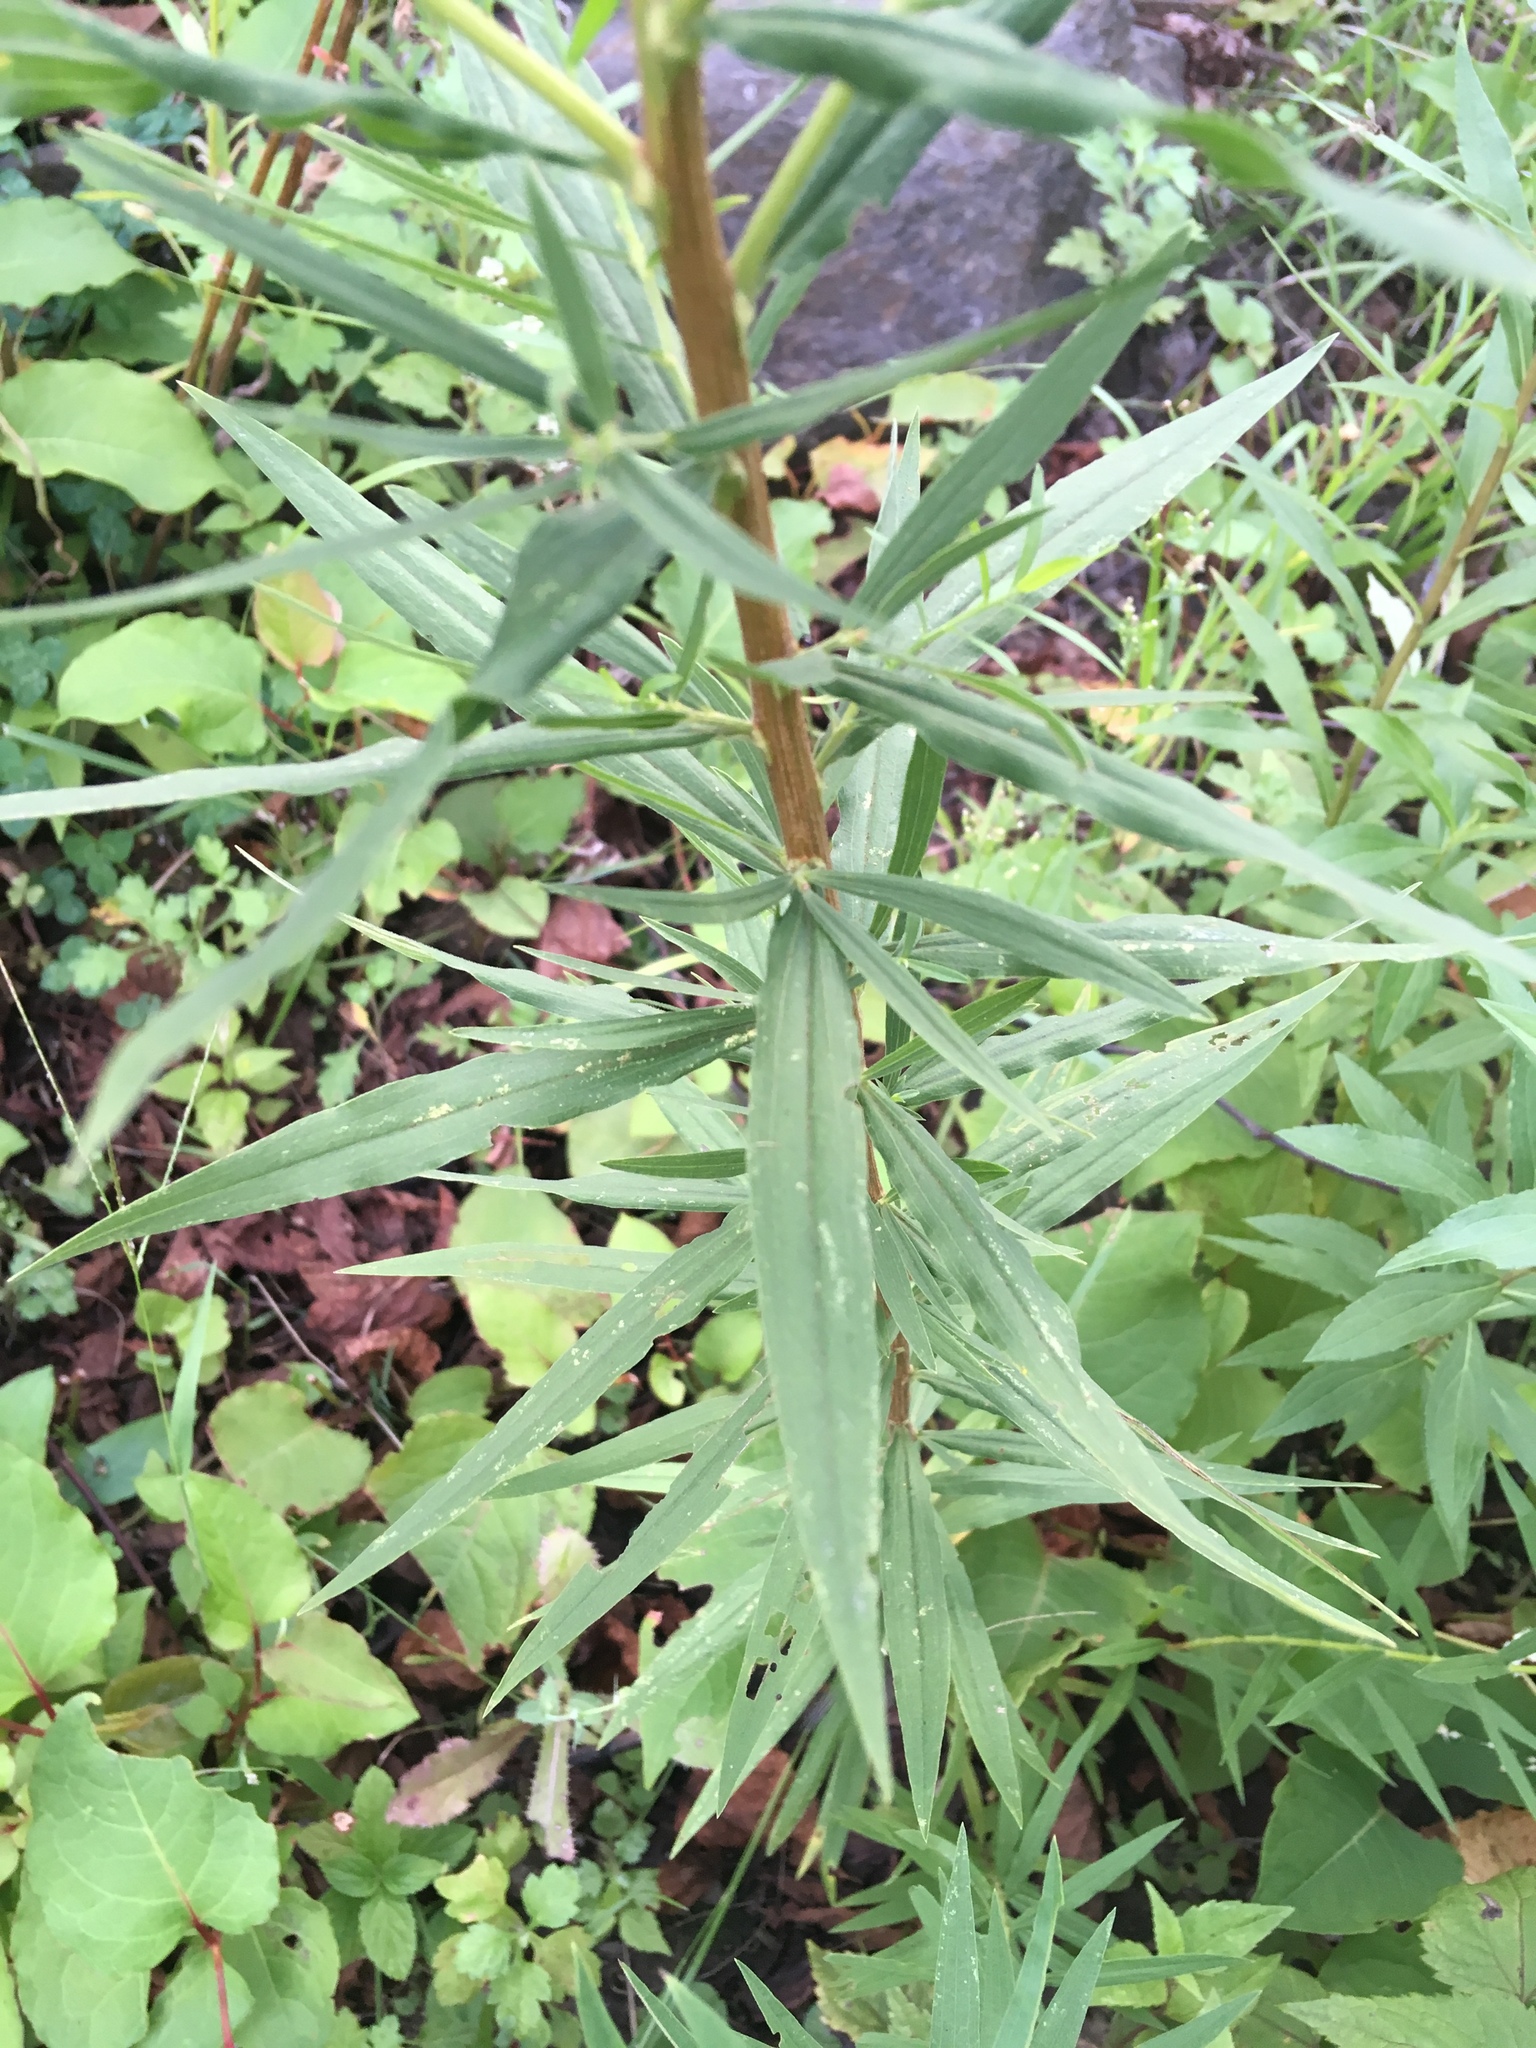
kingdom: Plantae
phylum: Tracheophyta
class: Magnoliopsida
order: Asterales
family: Asteraceae
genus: Euthamia
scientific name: Euthamia graminifolia
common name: Common goldentop
